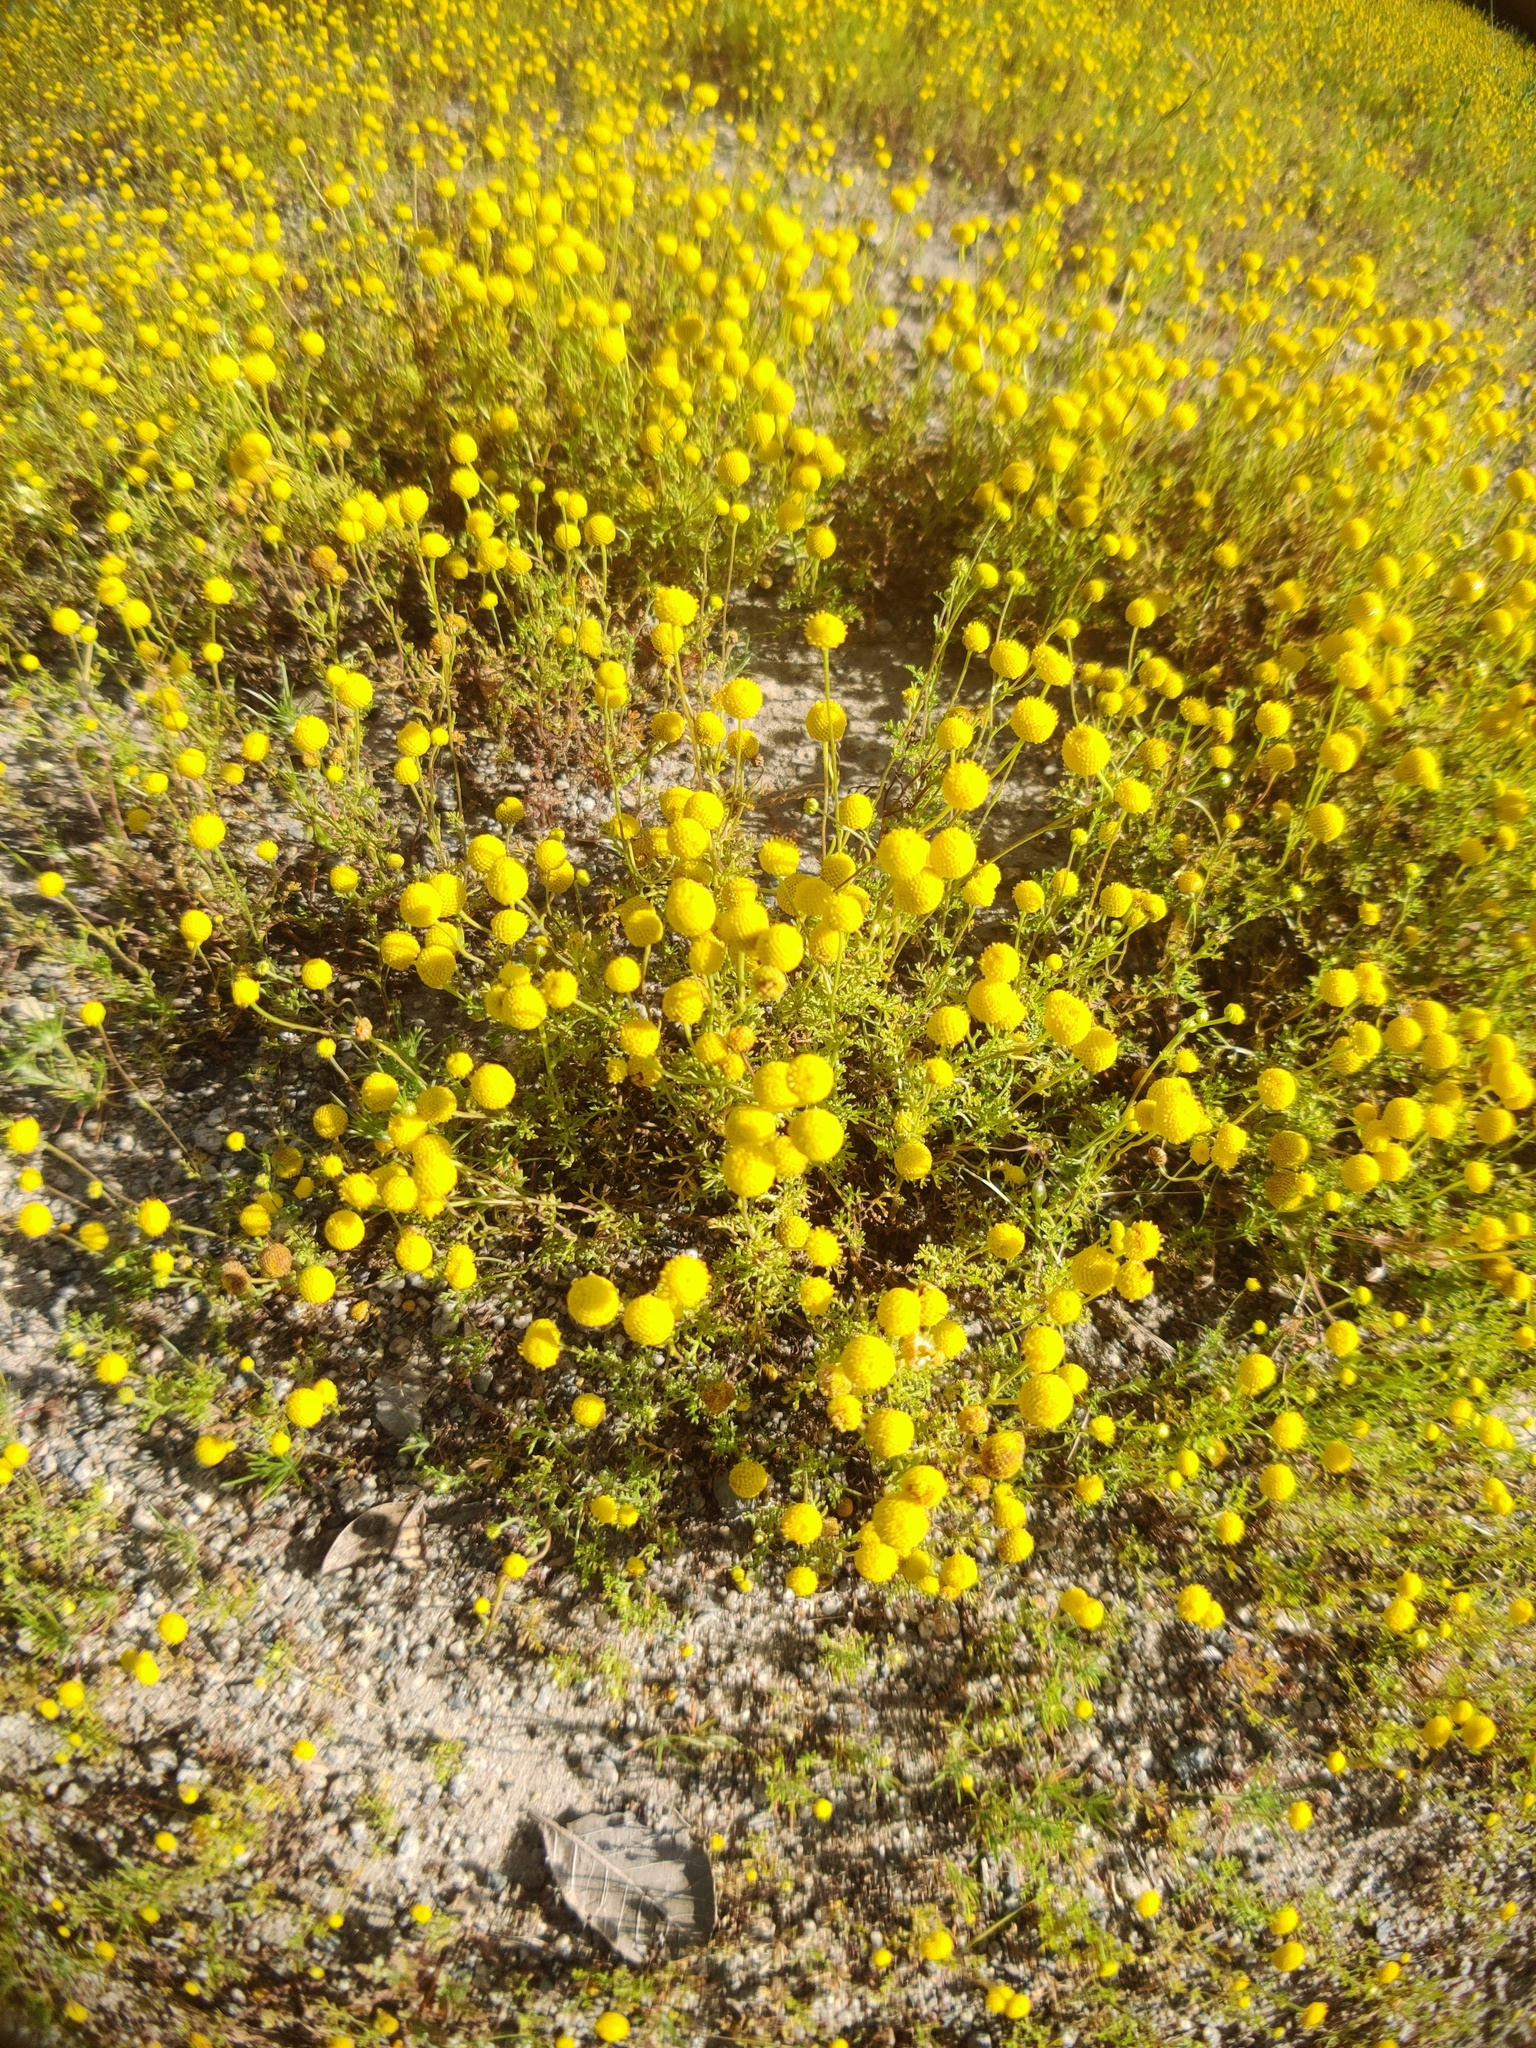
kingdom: Plantae
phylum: Tracheophyta
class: Magnoliopsida
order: Asterales
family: Asteraceae
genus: Oncosiphon
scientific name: Oncosiphon pilulifer
